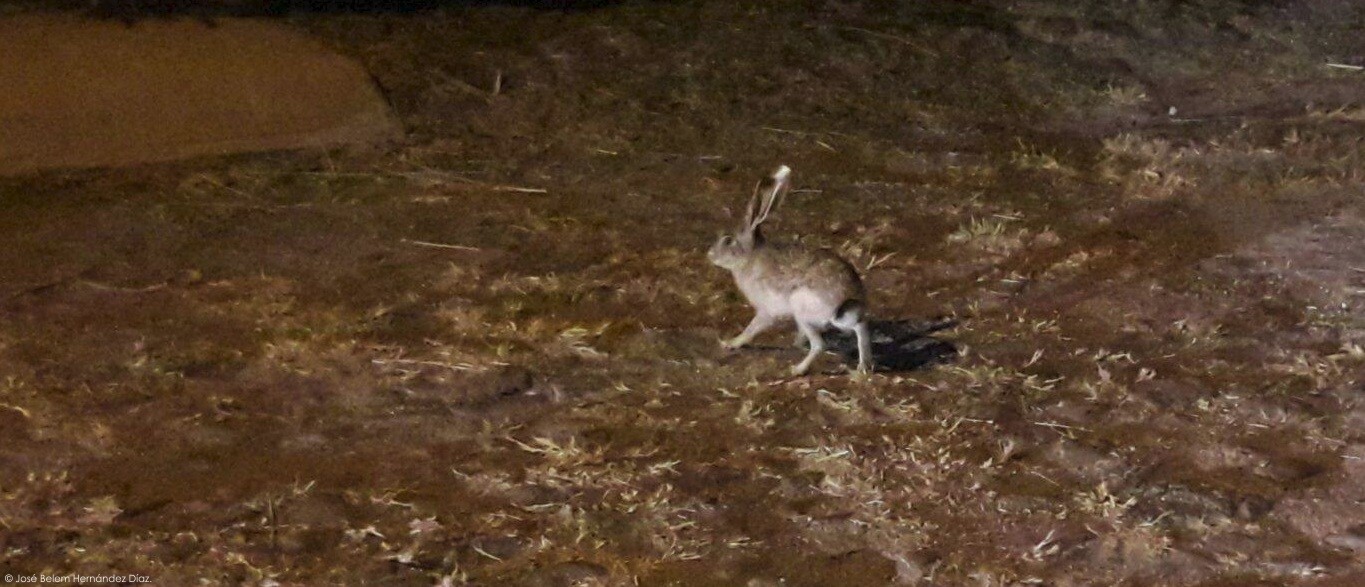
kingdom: Animalia
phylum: Chordata
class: Mammalia
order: Lagomorpha
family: Leporidae
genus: Lepus
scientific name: Lepus californicus
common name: Black-tailed jackrabbit
